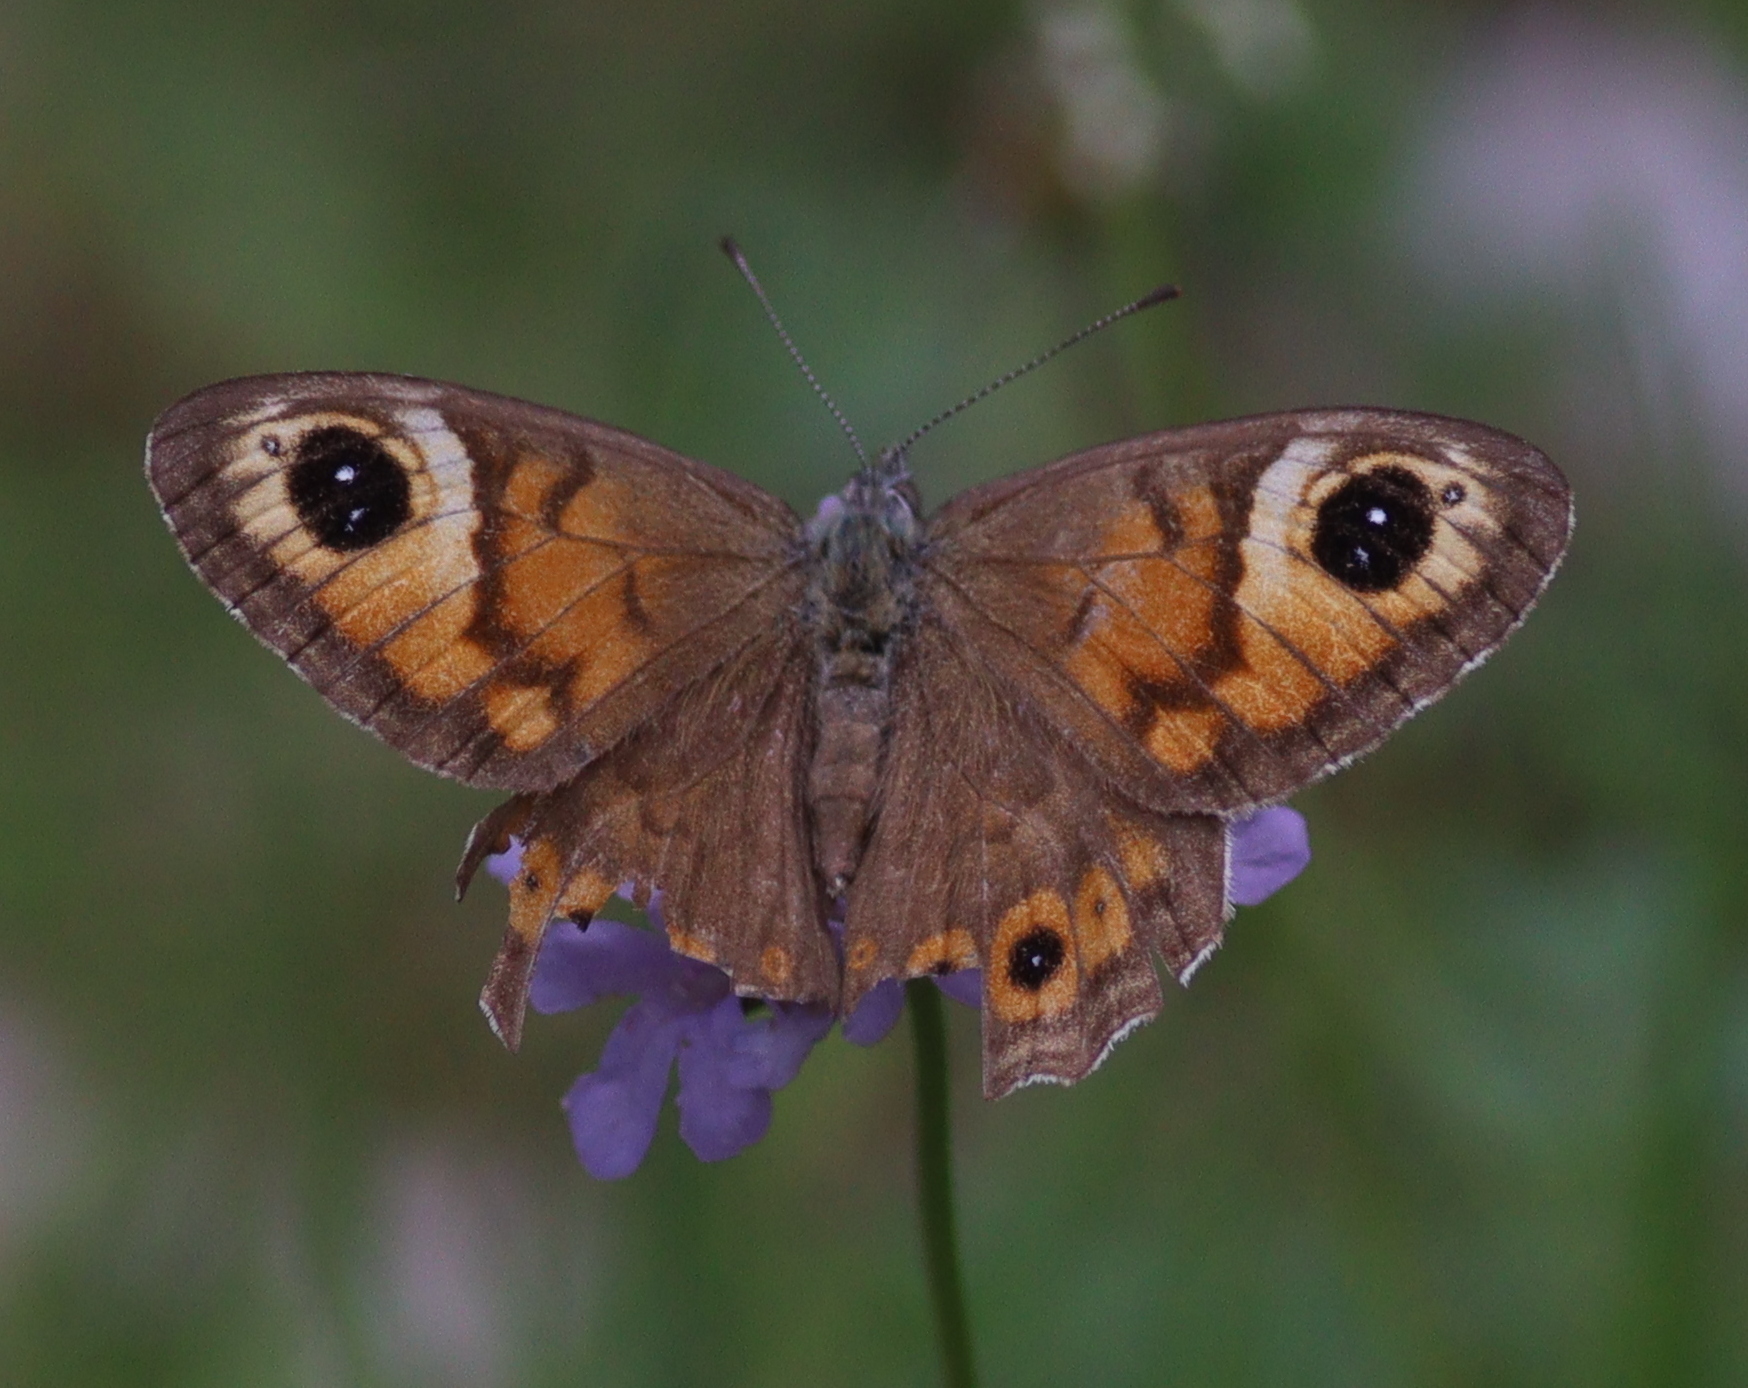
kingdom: Animalia
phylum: Arthropoda
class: Insecta
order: Lepidoptera
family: Nymphalidae
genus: Pararge
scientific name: Pararge Lasiommata maera
